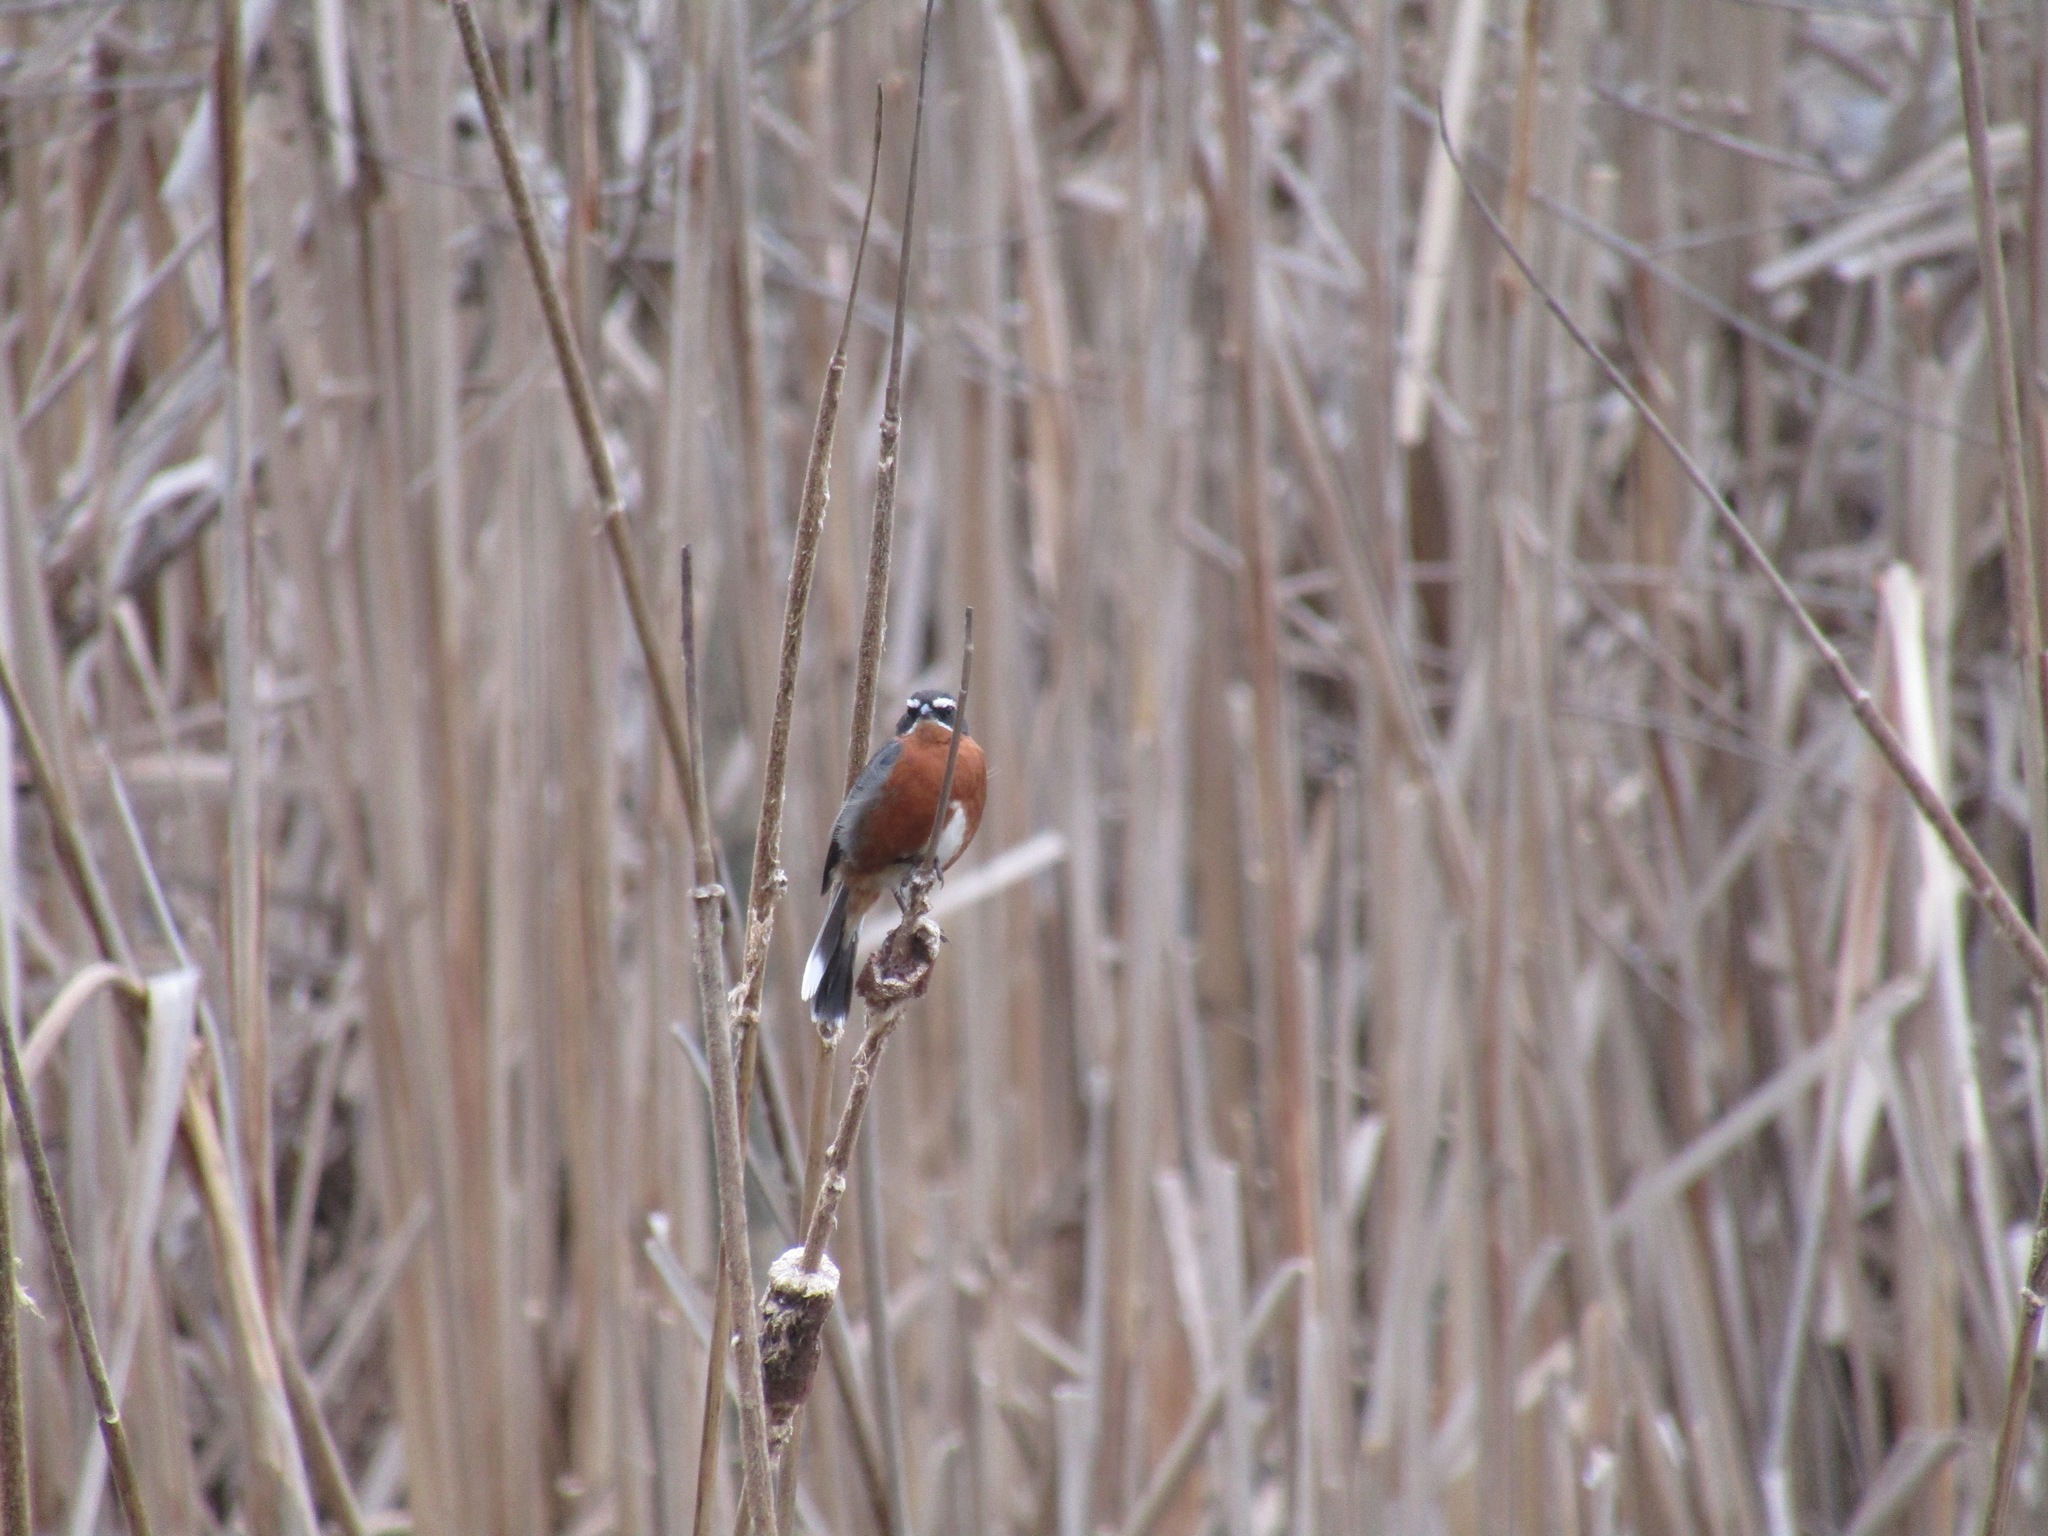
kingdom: Animalia
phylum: Chordata
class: Aves
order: Passeriformes
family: Thraupidae
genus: Poospiza
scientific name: Poospiza nigrorufa
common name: Black-and-rufous warbling finch
